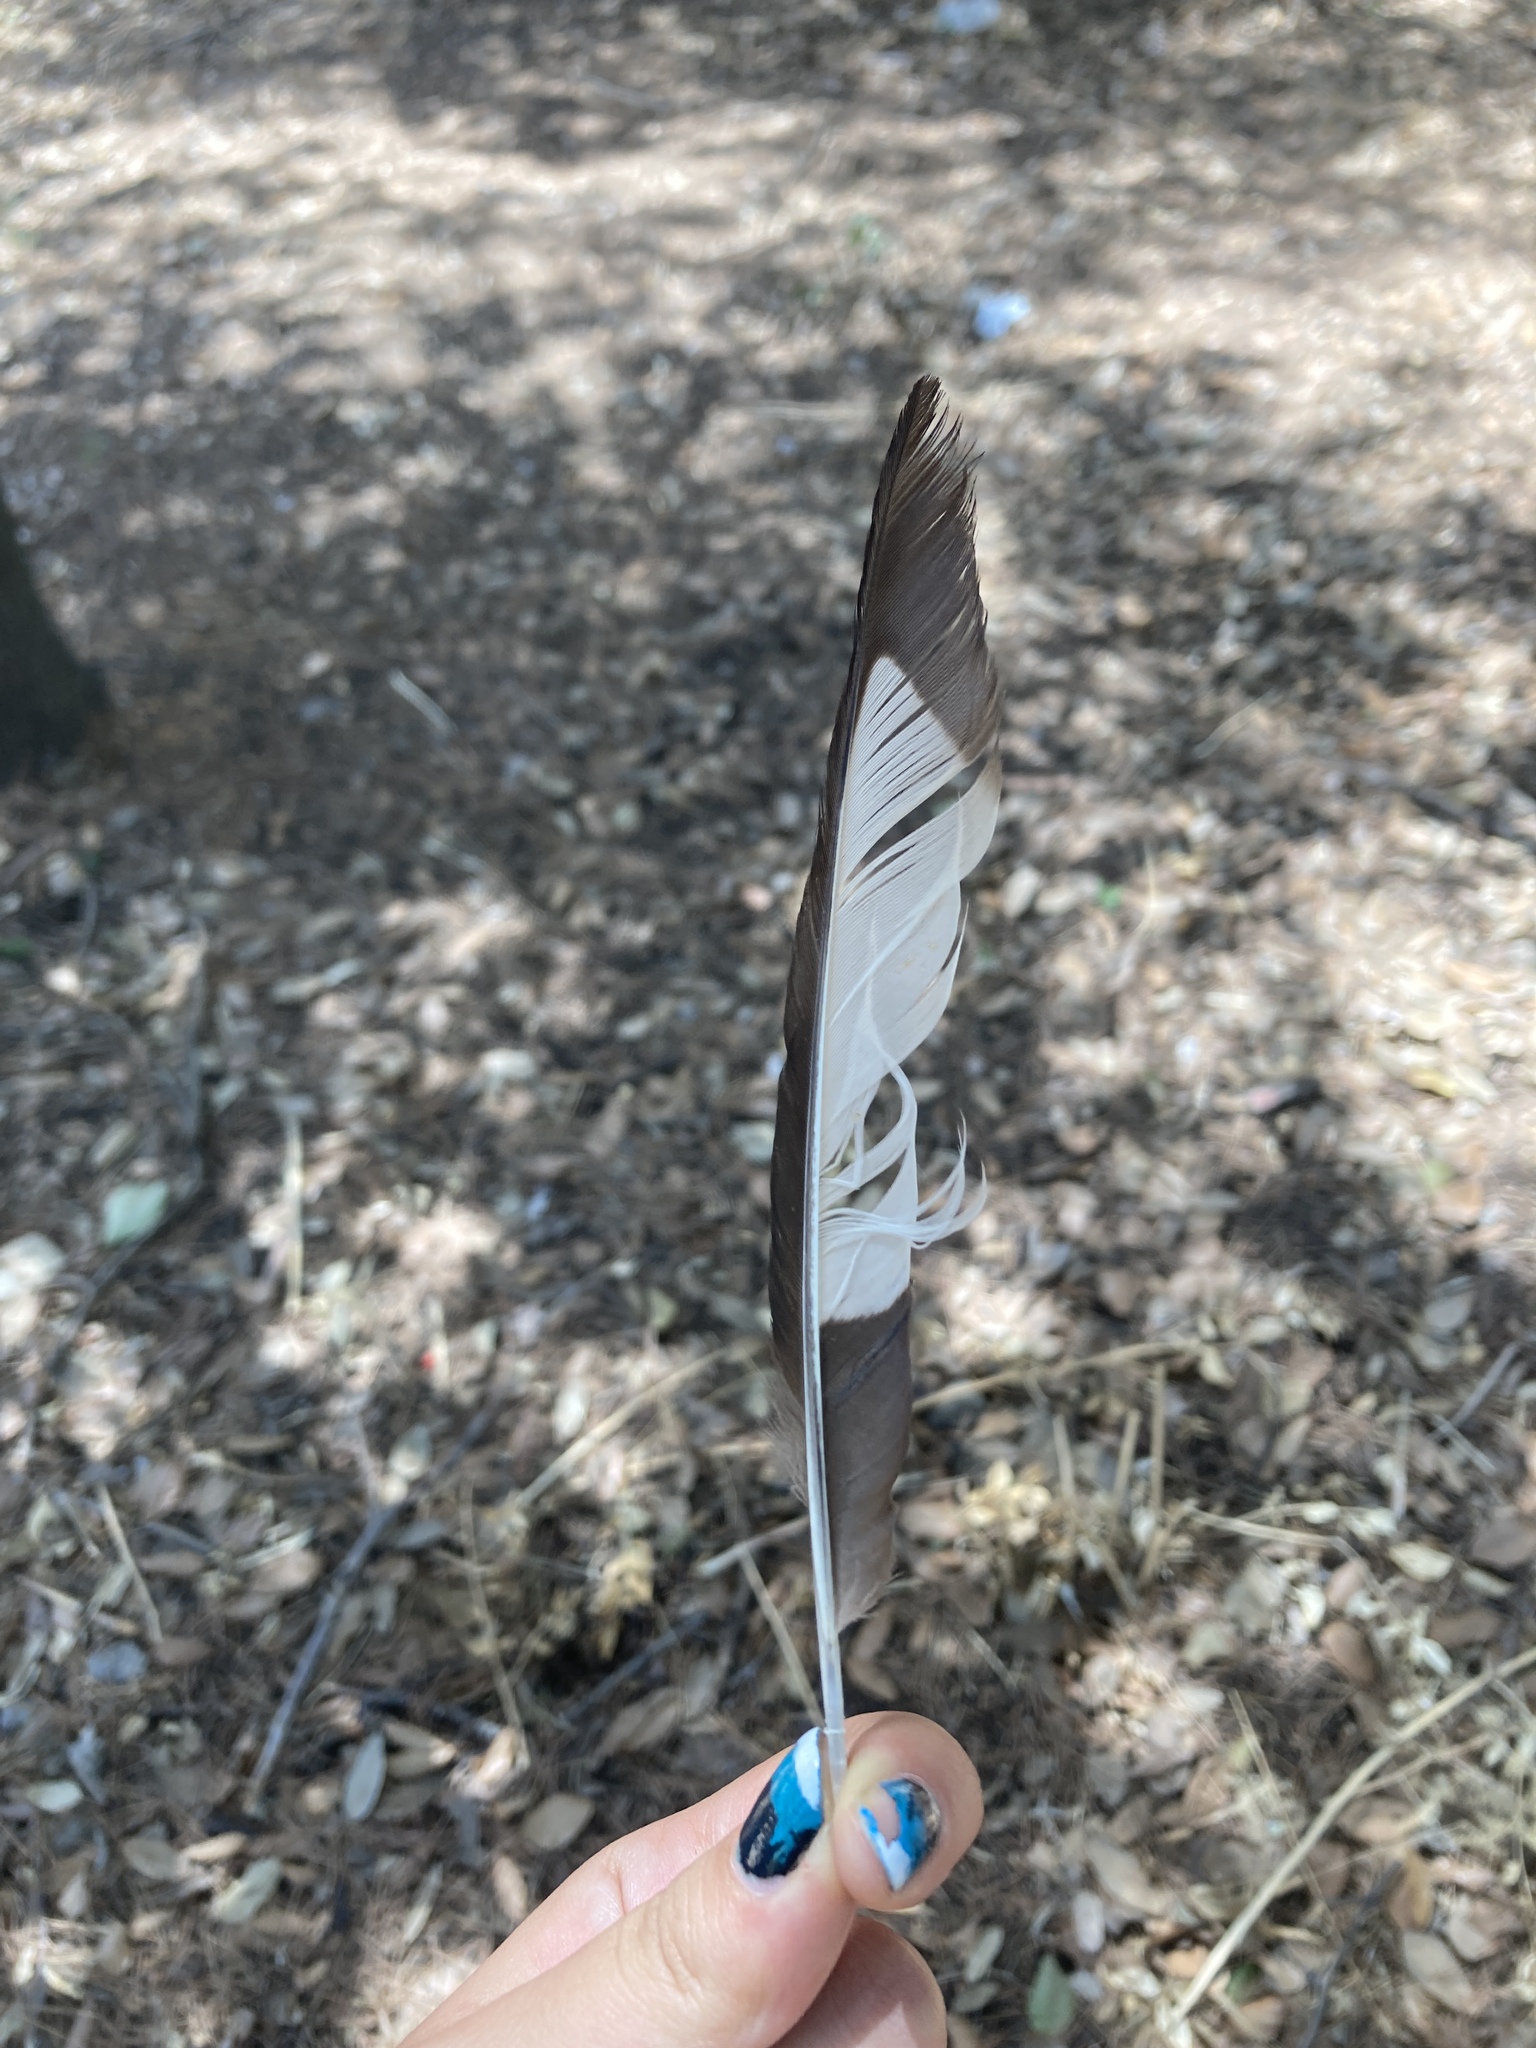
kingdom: Animalia
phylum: Chordata
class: Aves
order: Passeriformes
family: Corvidae
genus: Pica
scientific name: Pica pica
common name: Eurasian magpie
